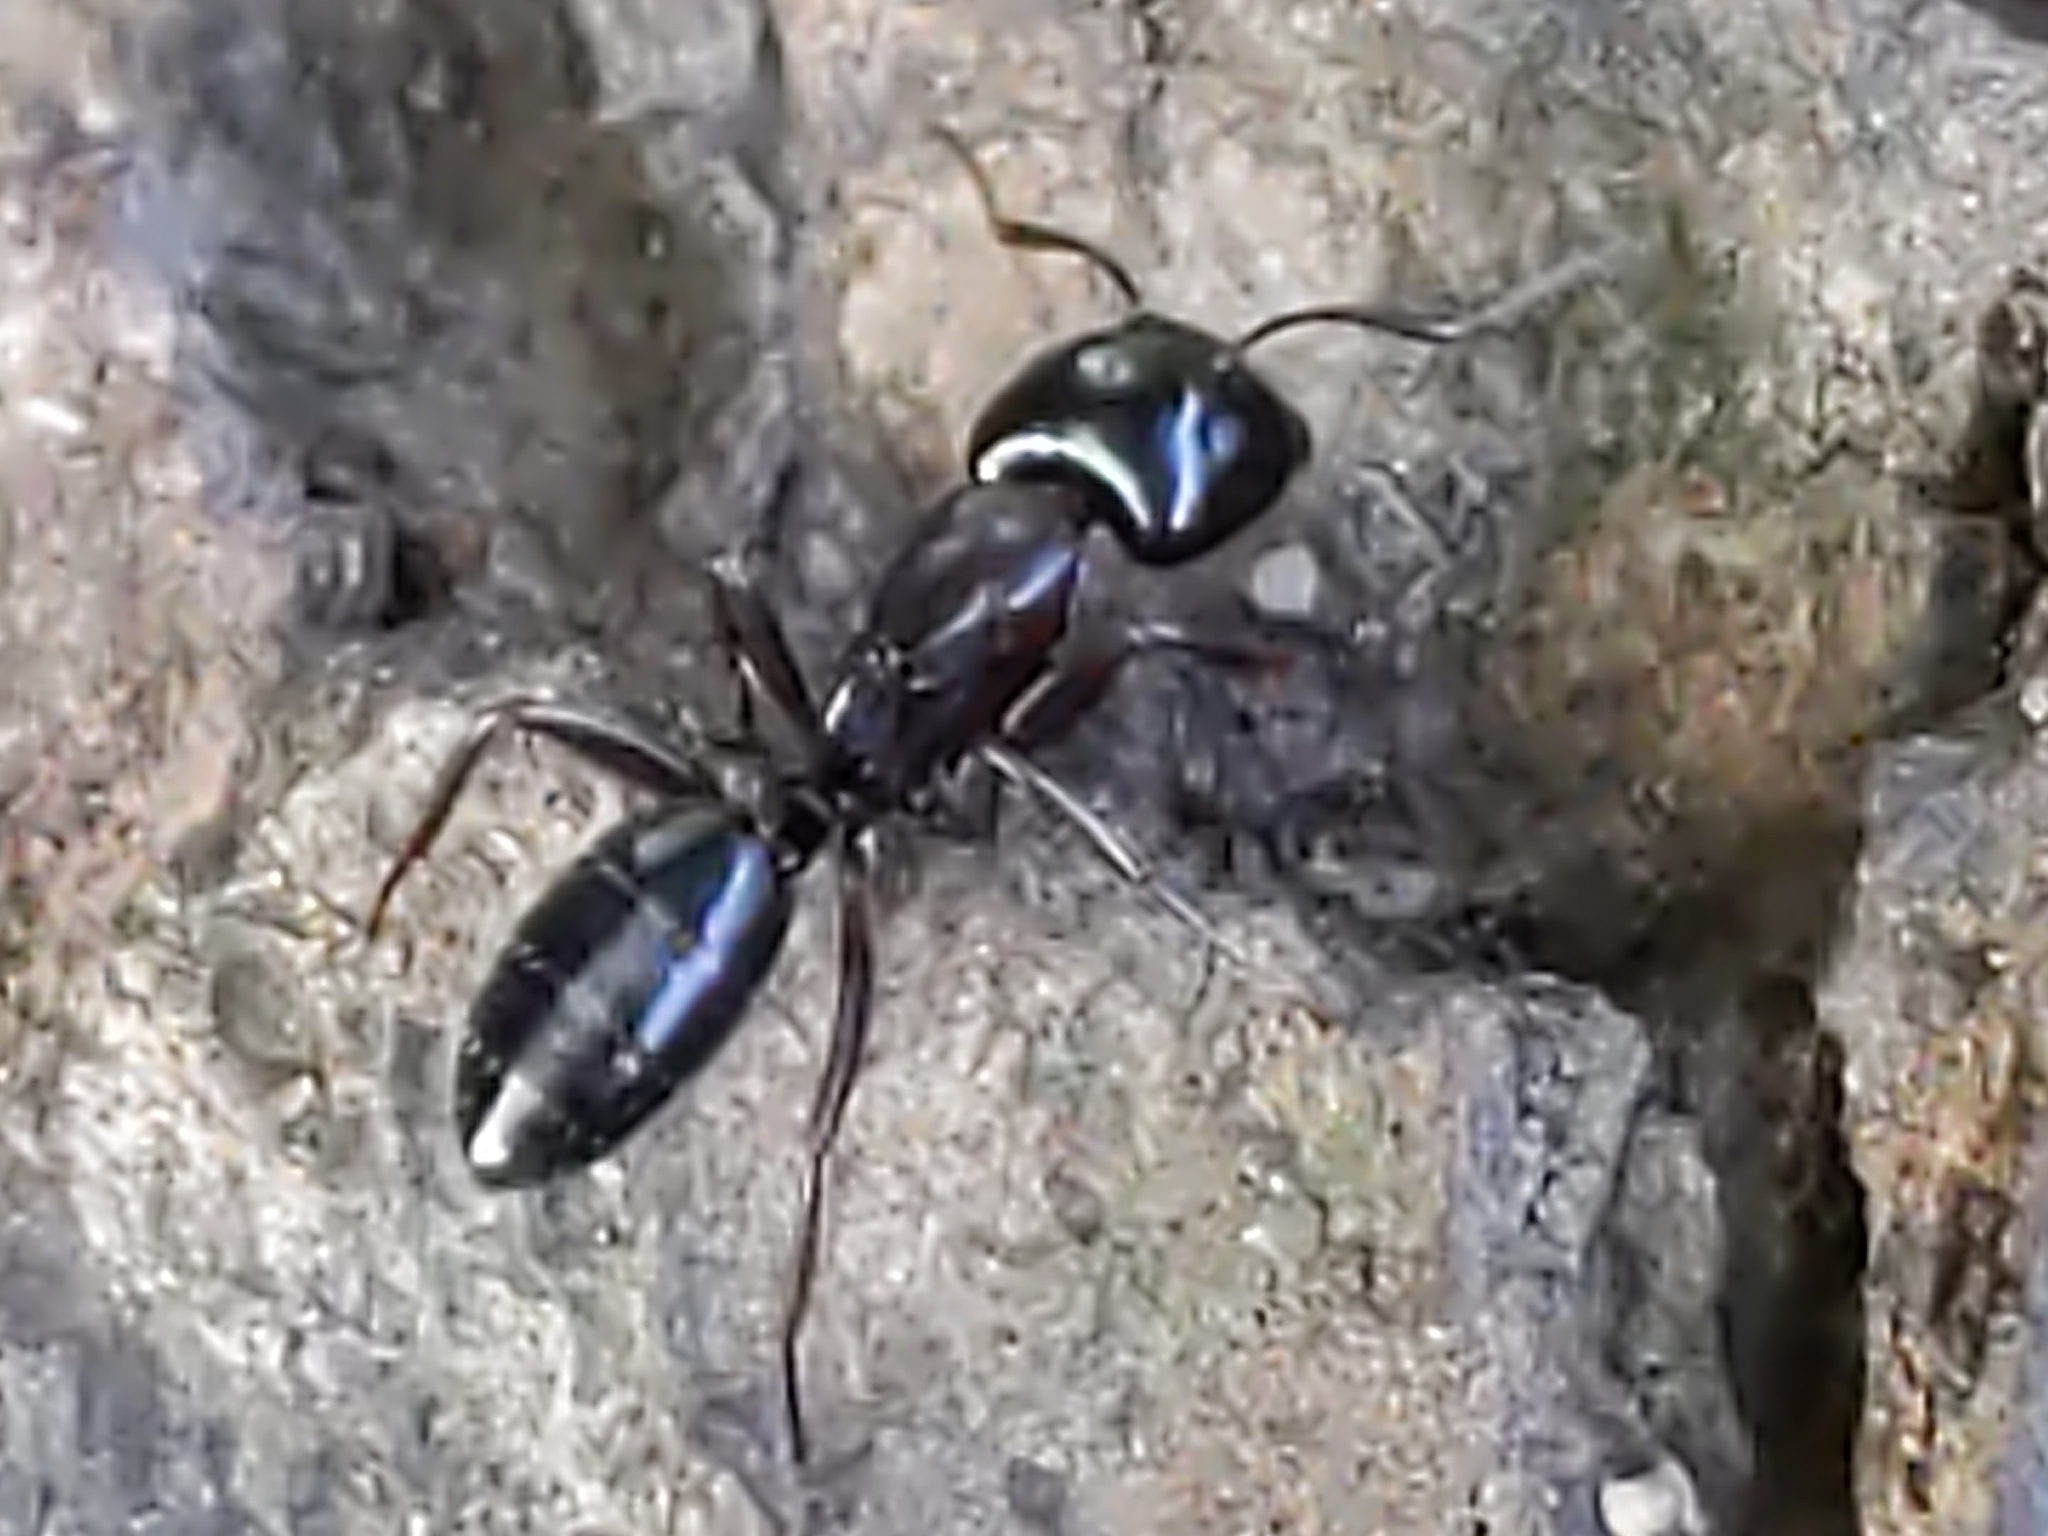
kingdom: Animalia
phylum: Arthropoda
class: Insecta
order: Hymenoptera
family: Formicidae
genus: Myrmentoma
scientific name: Myrmentoma
